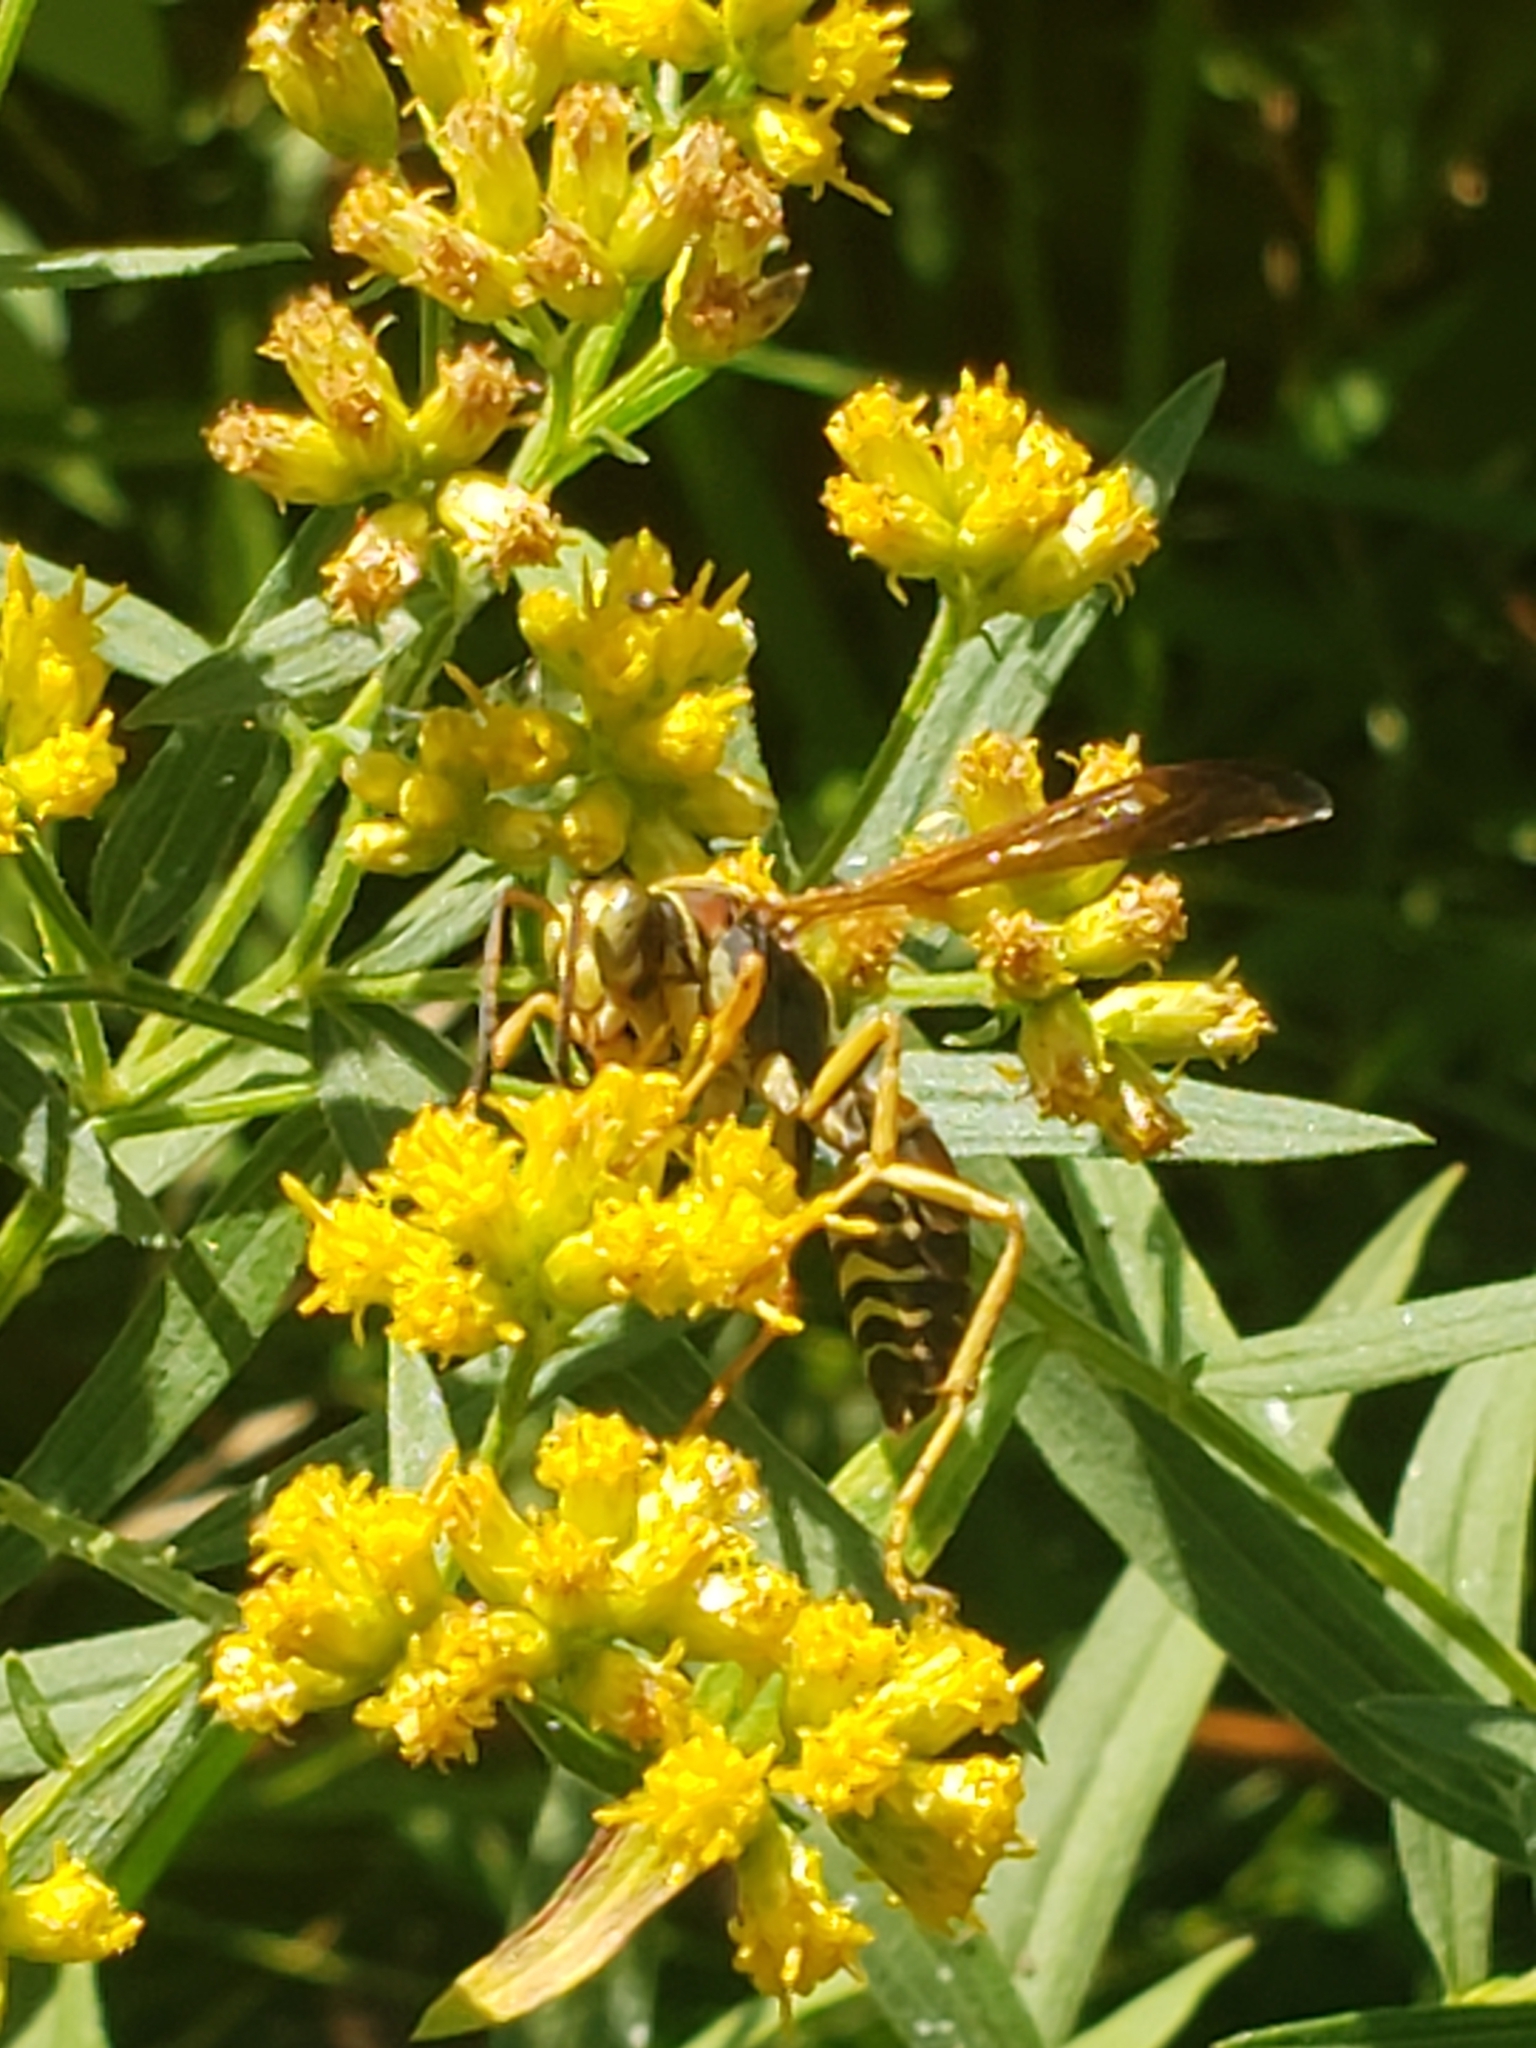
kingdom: Animalia
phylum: Arthropoda
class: Insecta
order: Hymenoptera
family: Eumenidae
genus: Polistes
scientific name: Polistes fuscatus
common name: Dark paper wasp
